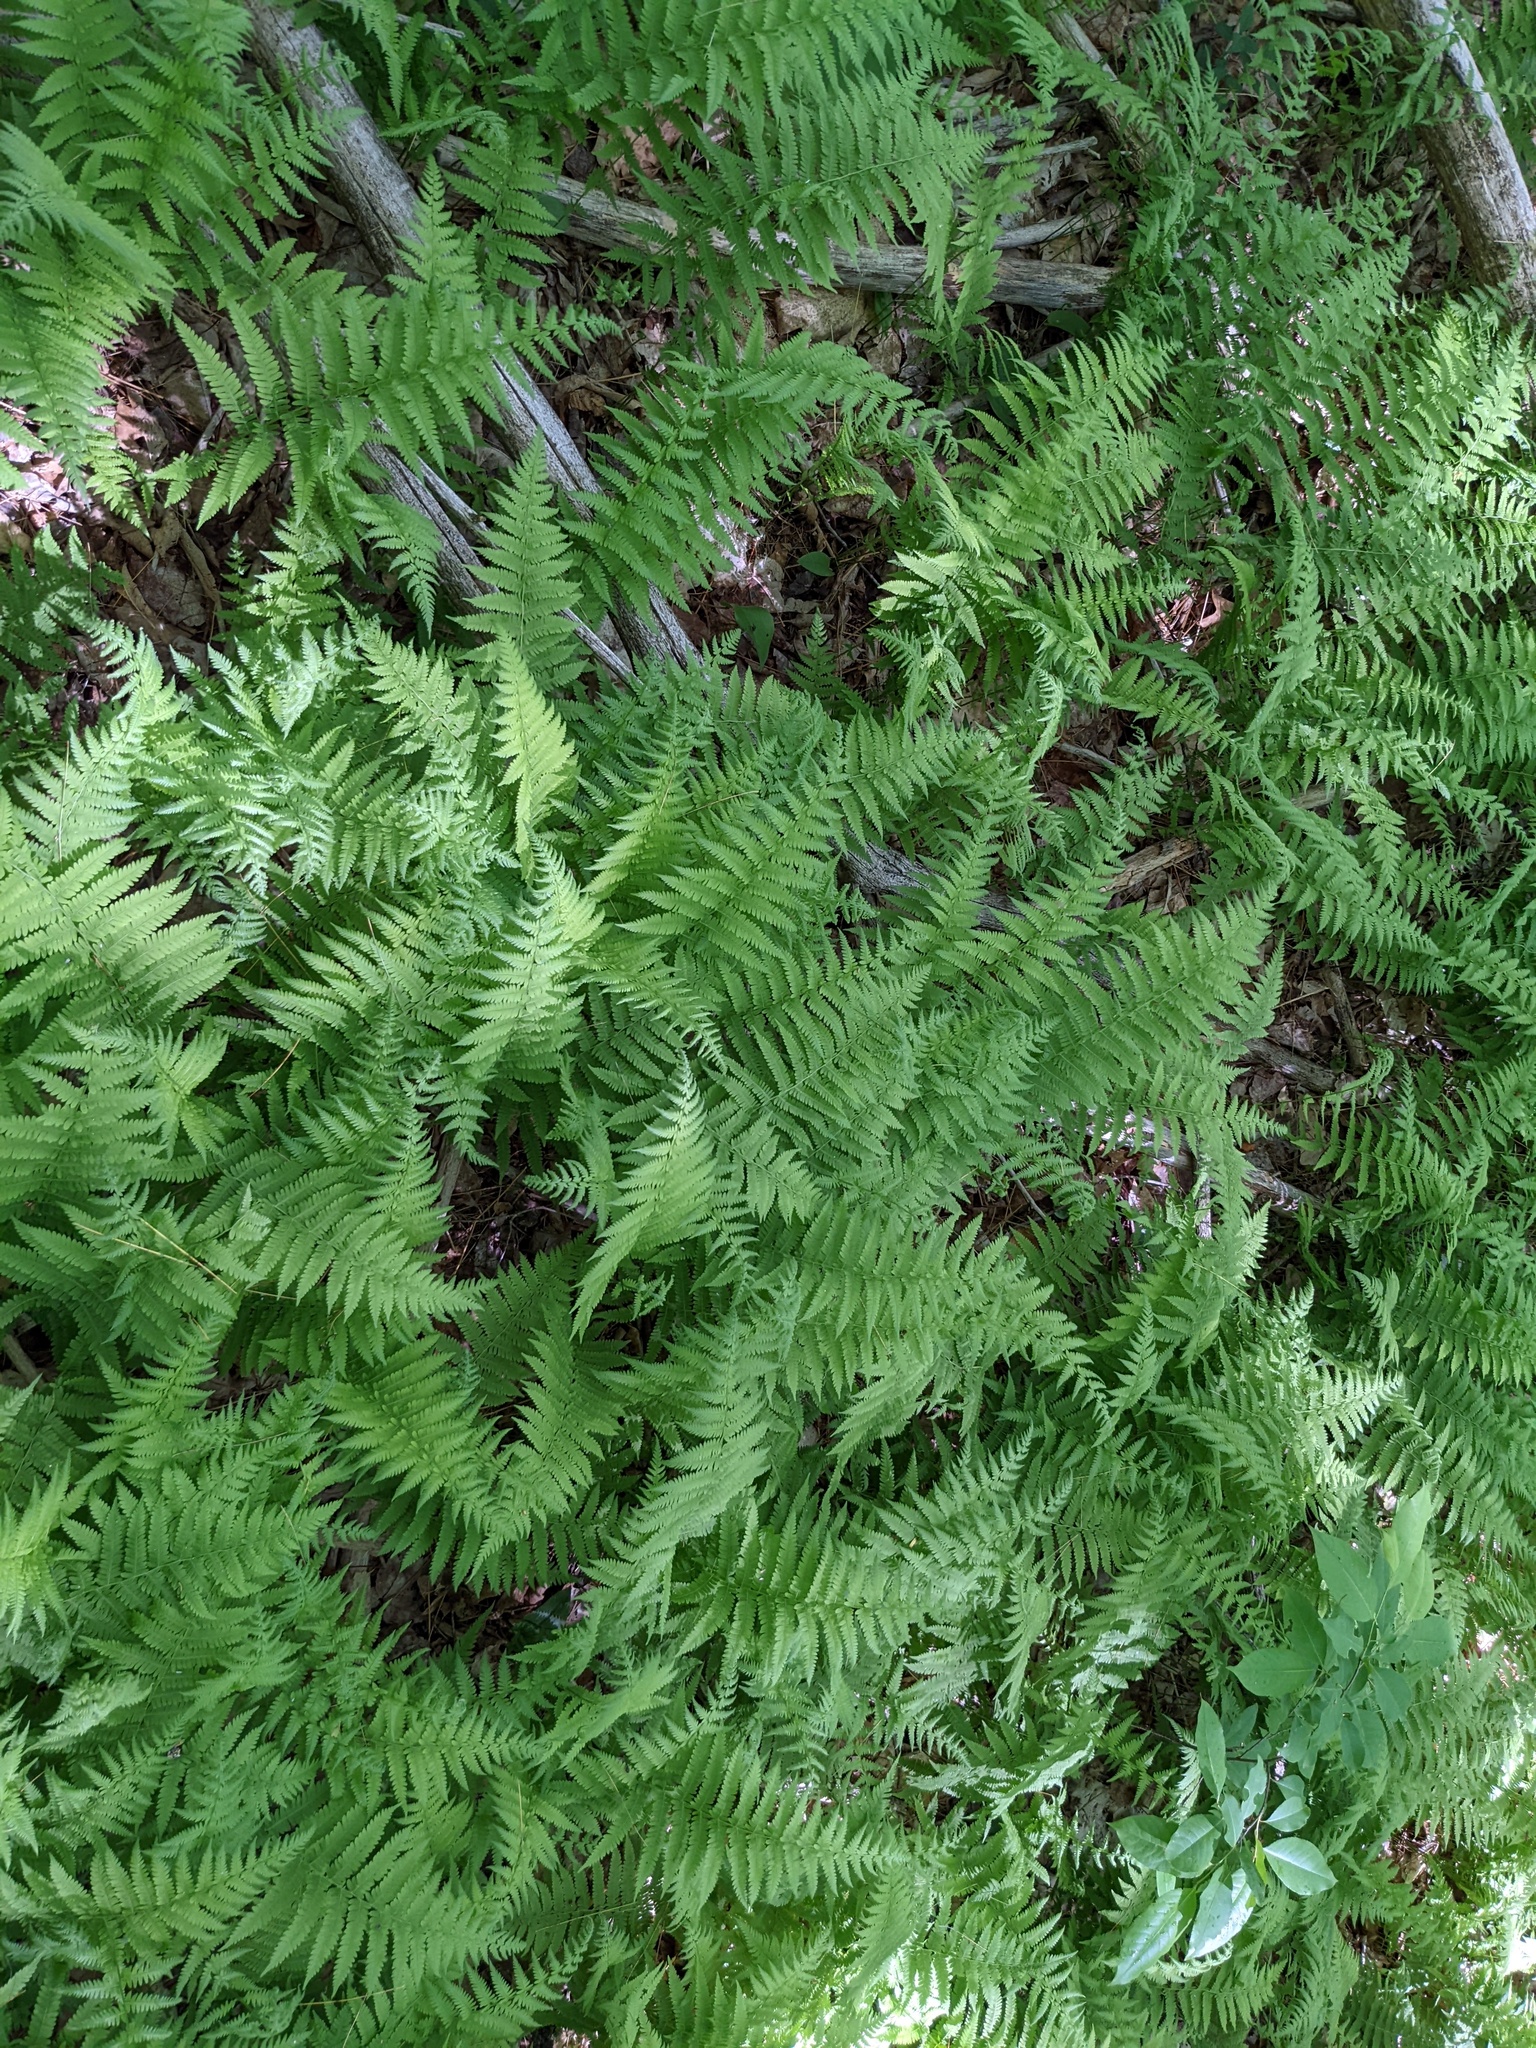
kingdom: Plantae
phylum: Tracheophyta
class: Polypodiopsida
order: Polypodiales
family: Thelypteridaceae
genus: Amauropelta
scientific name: Amauropelta noveboracensis
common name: New york fern
